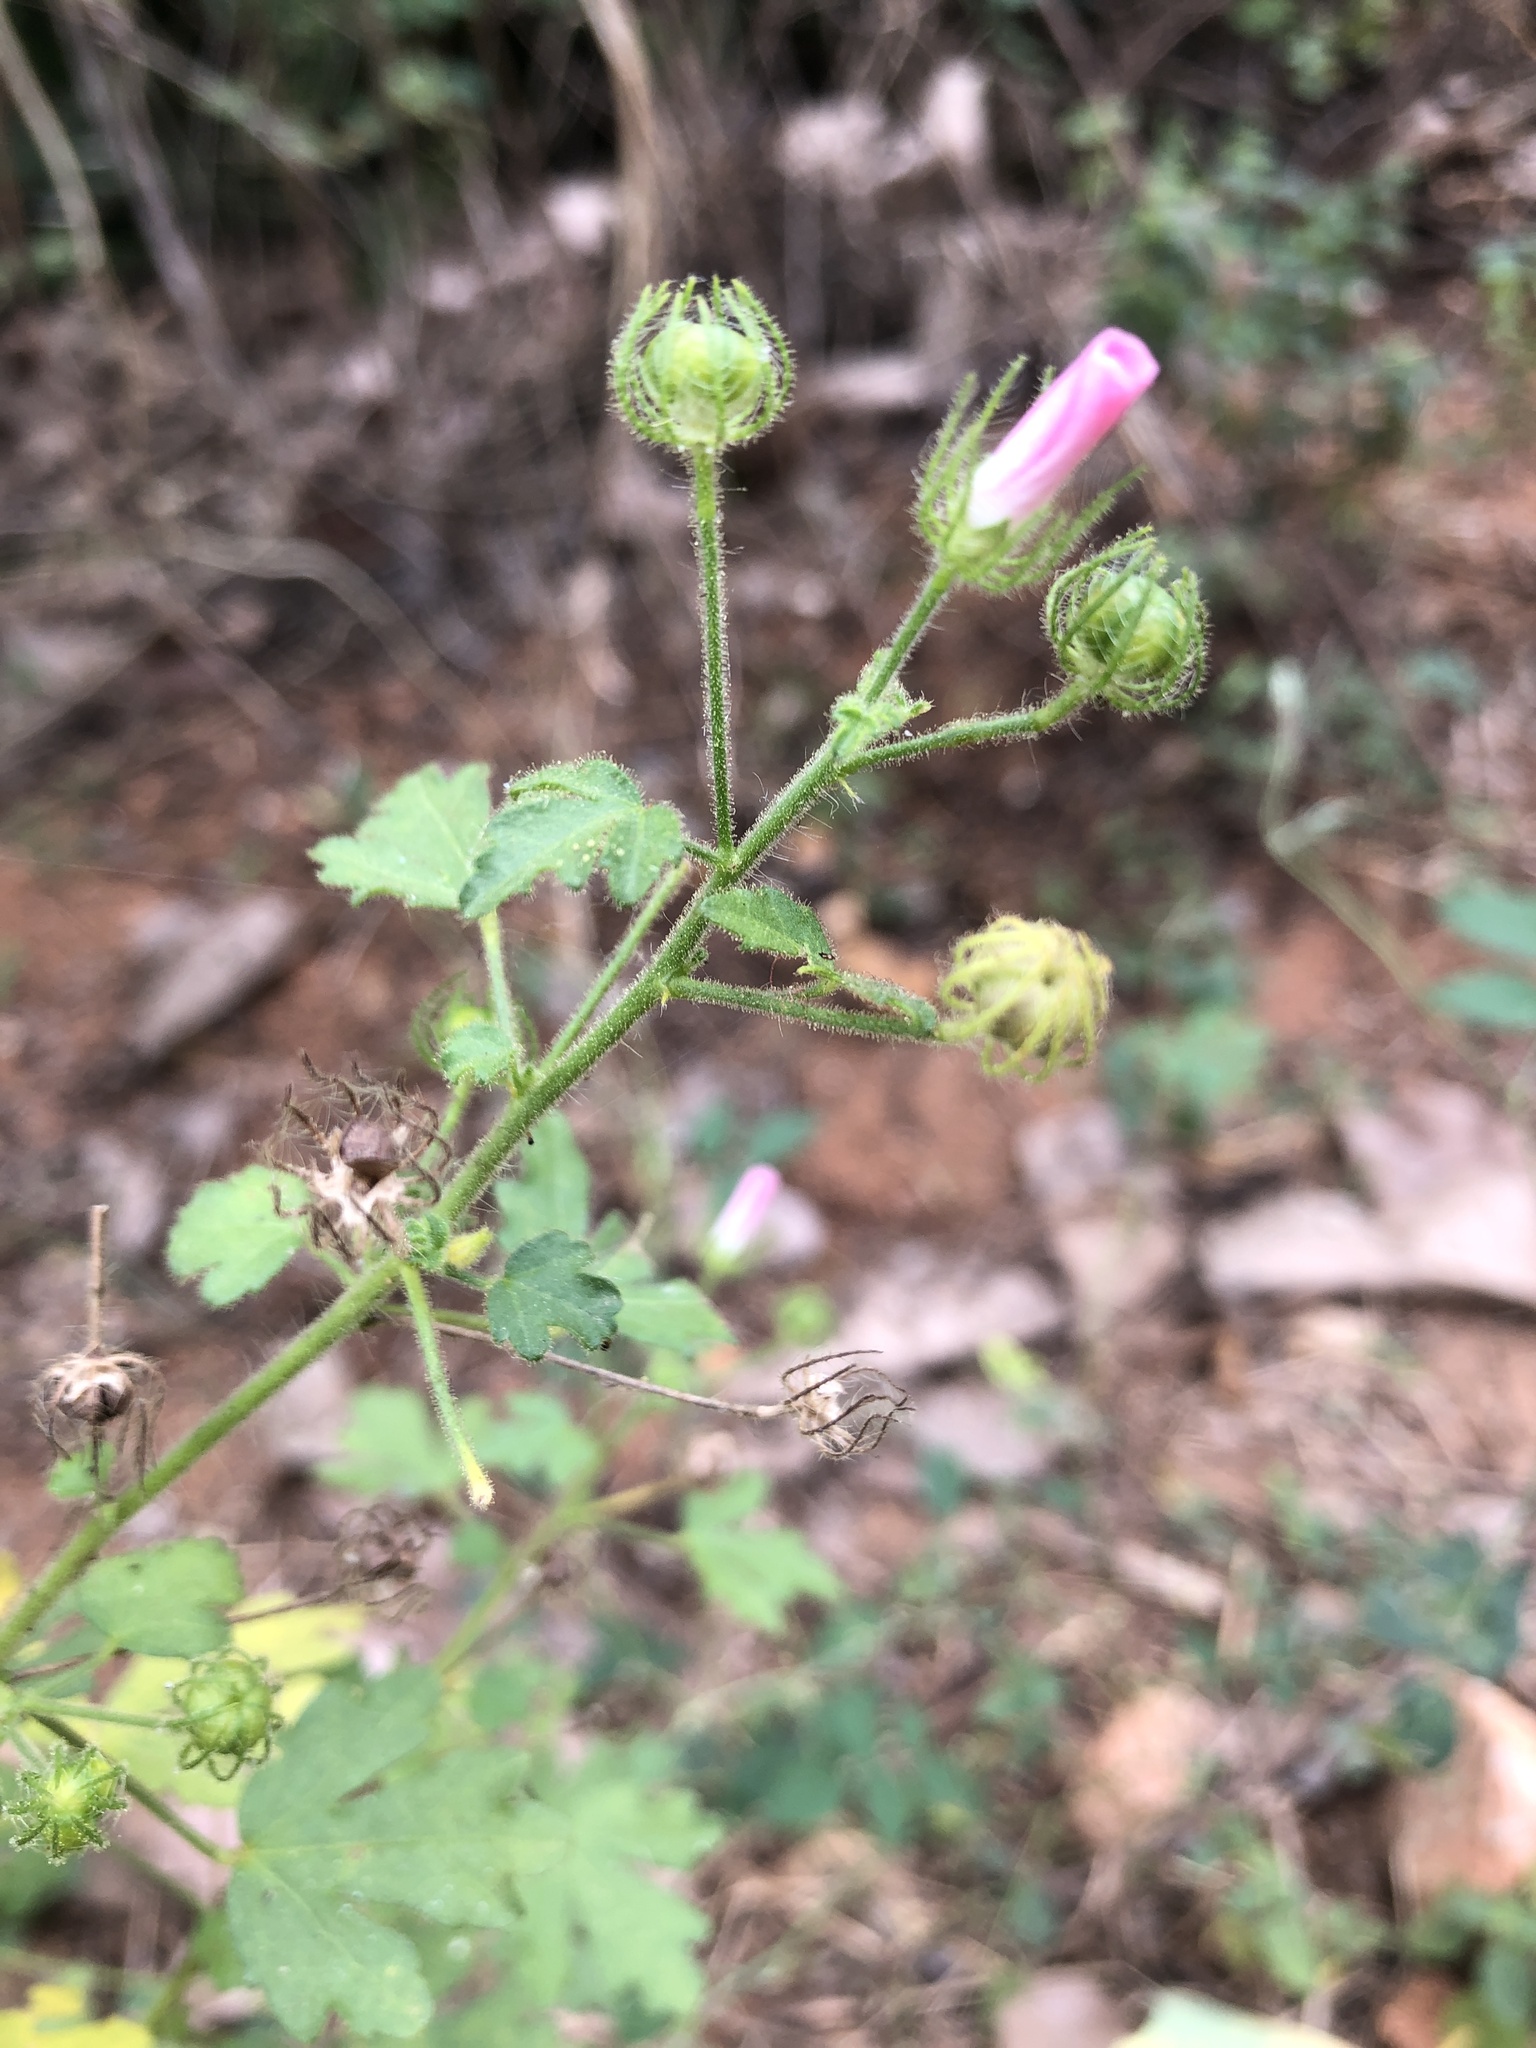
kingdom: Plantae
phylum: Tracheophyta
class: Magnoliopsida
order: Malvales
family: Malvaceae
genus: Urena
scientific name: Urena procumbens
